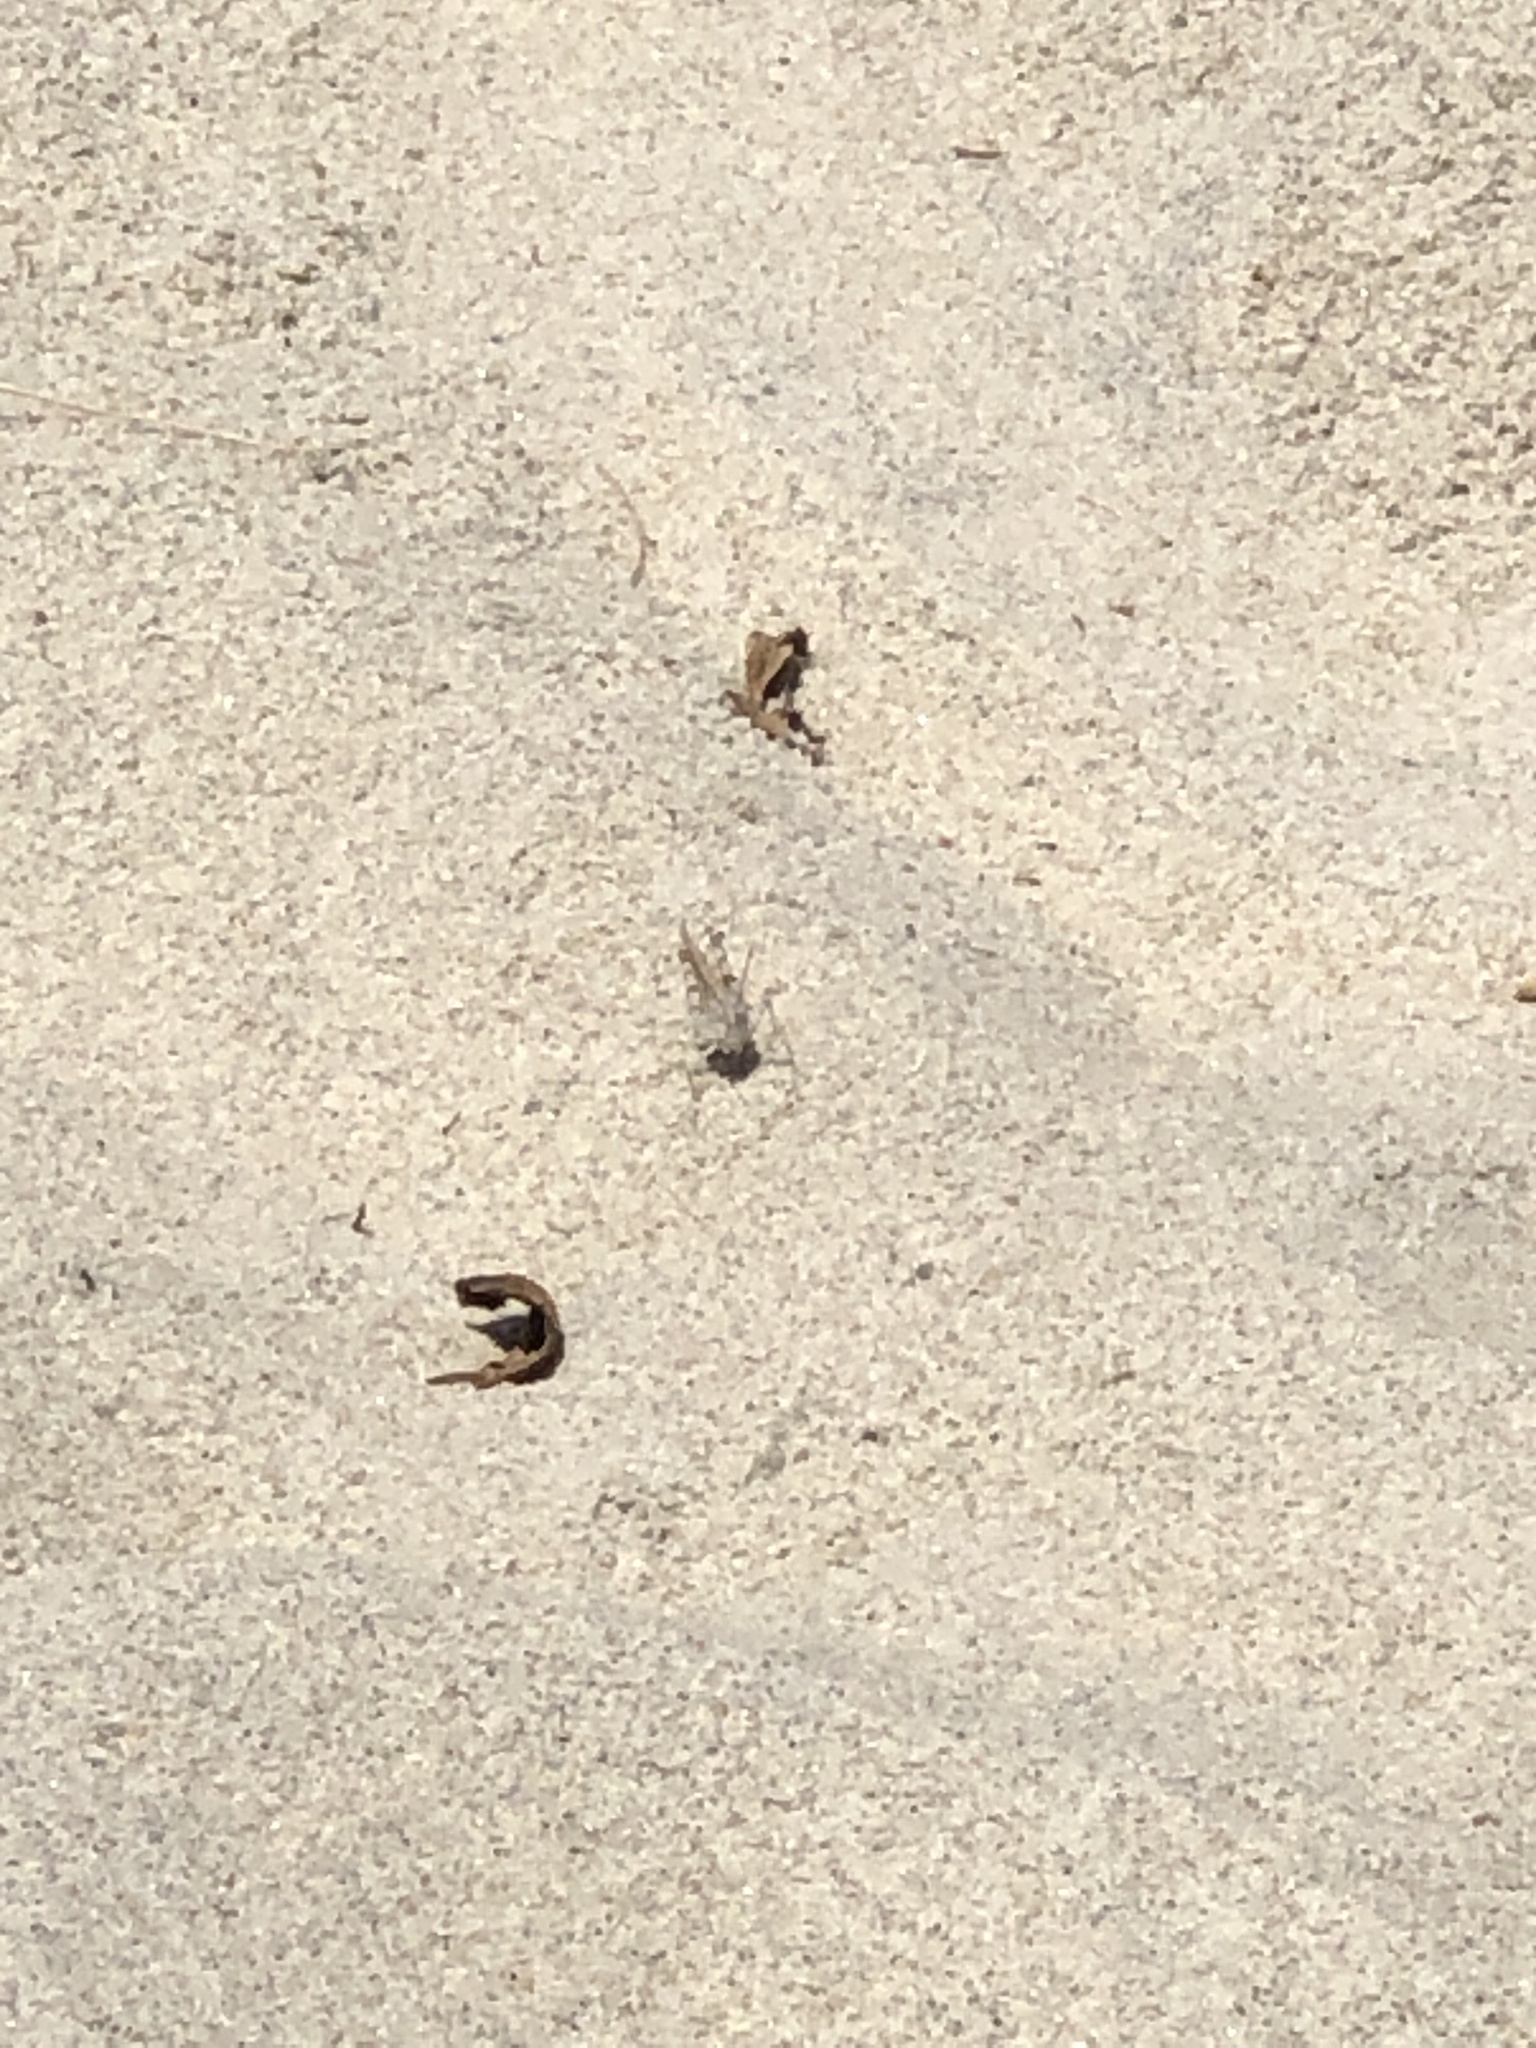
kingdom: Animalia
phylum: Arthropoda
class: Insecta
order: Orthoptera
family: Acrididae
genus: Trimerotropis
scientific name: Trimerotropis maritima
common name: Seaside locust
